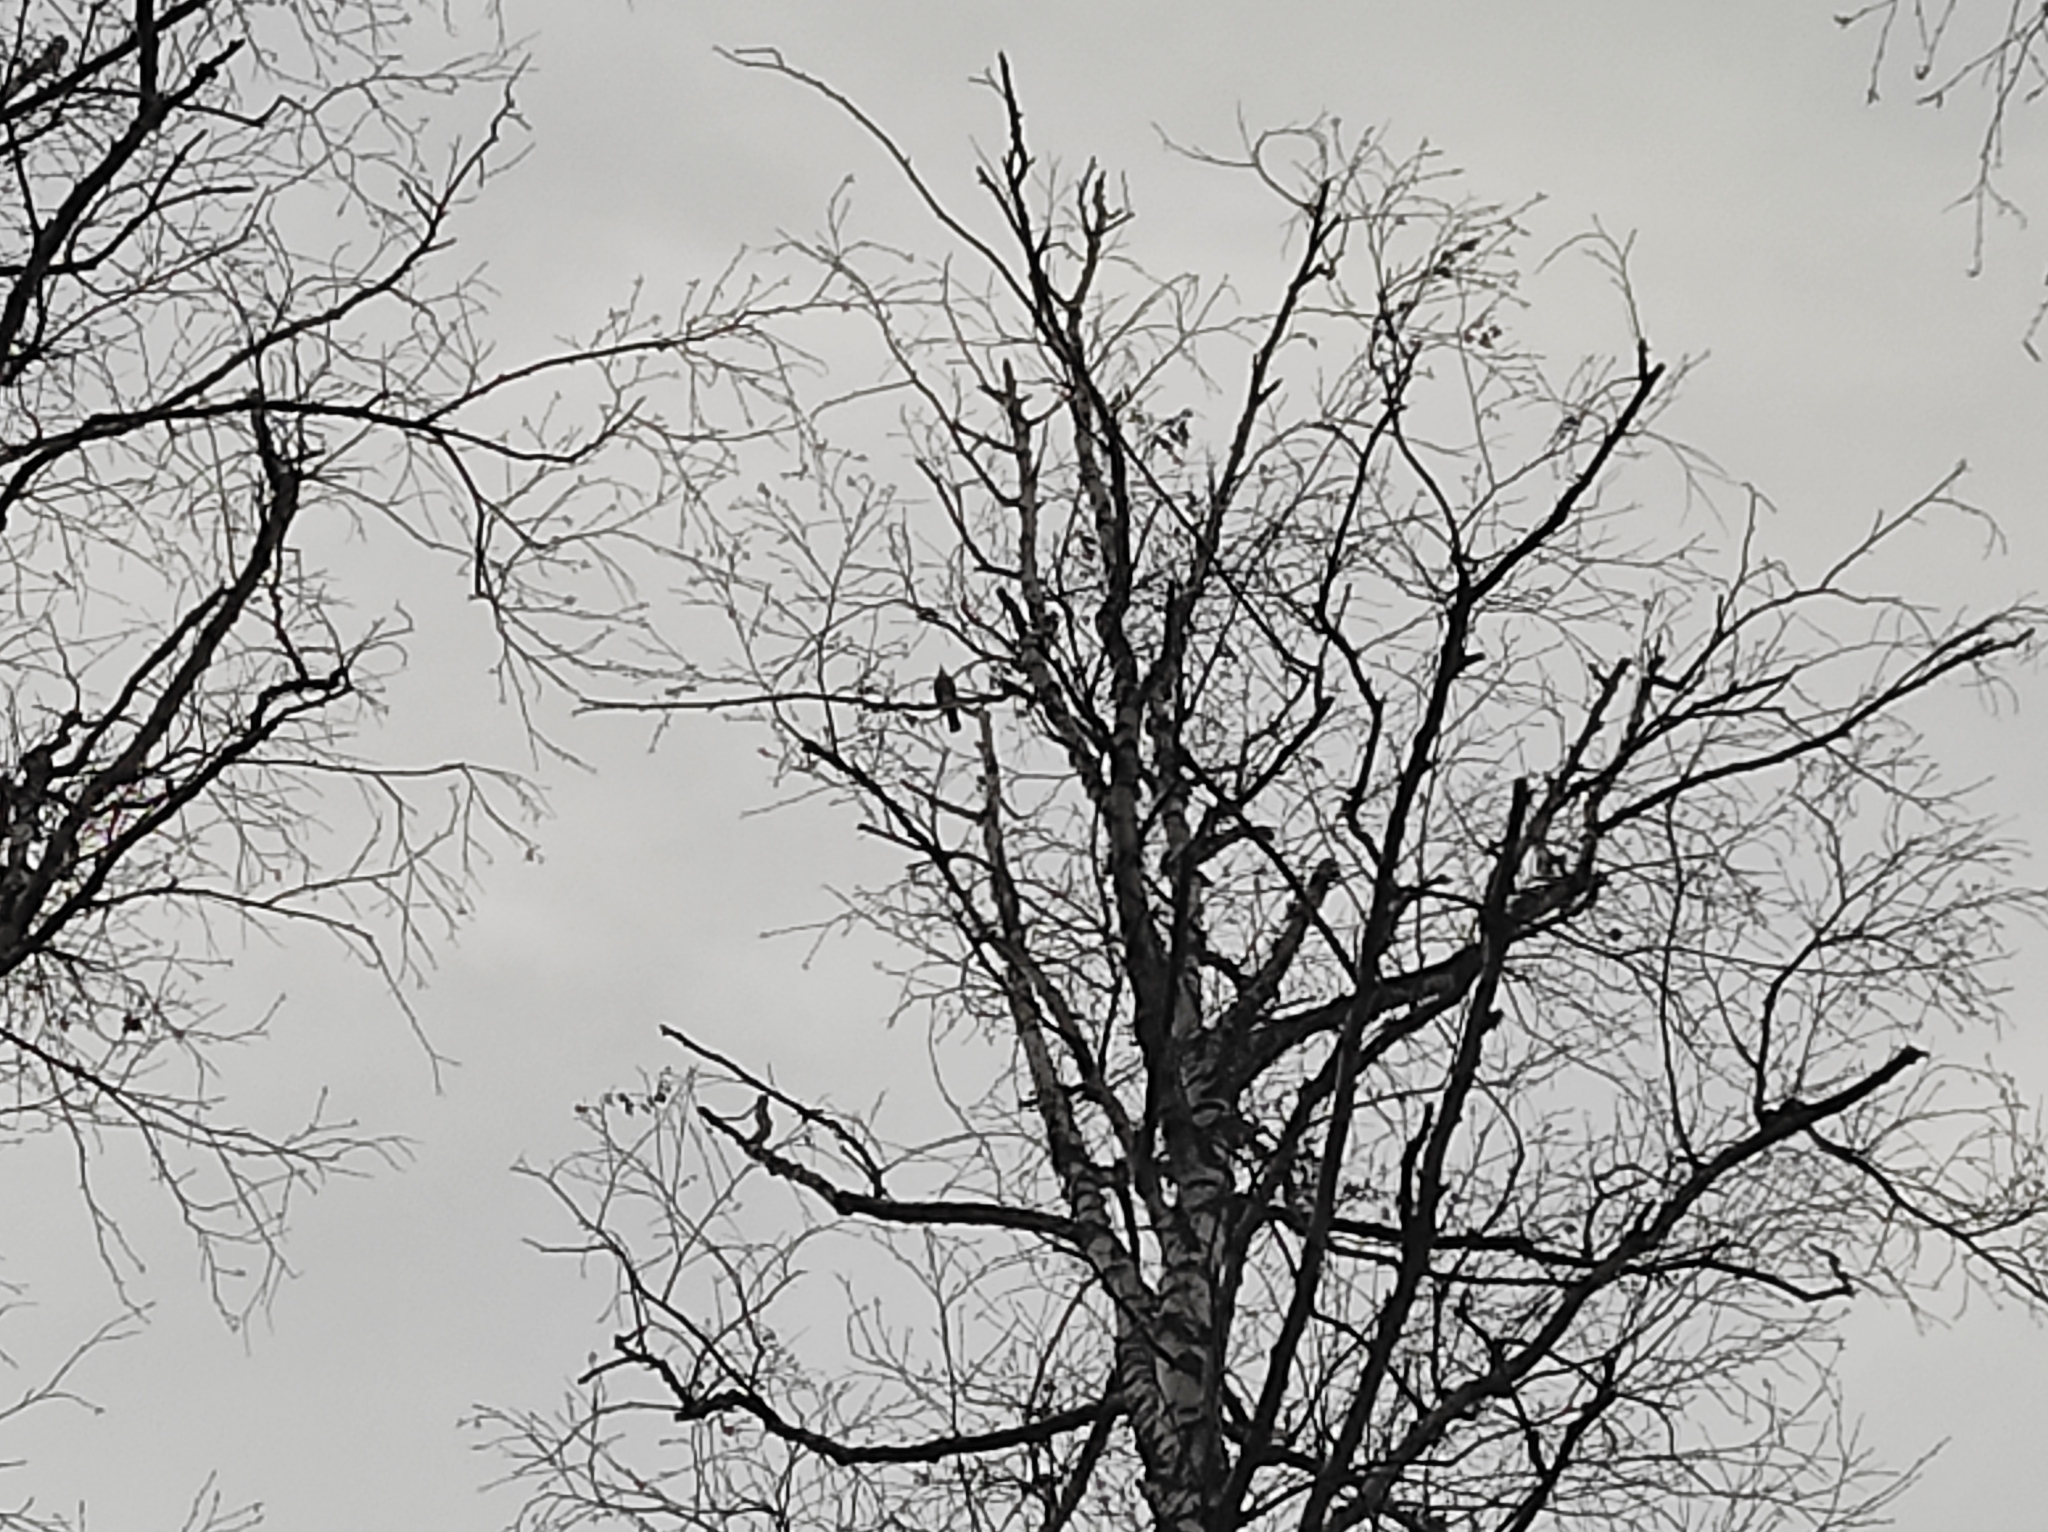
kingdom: Animalia
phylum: Chordata
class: Aves
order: Passeriformes
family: Turdidae
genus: Turdus
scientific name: Turdus philomelos
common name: Song thrush
